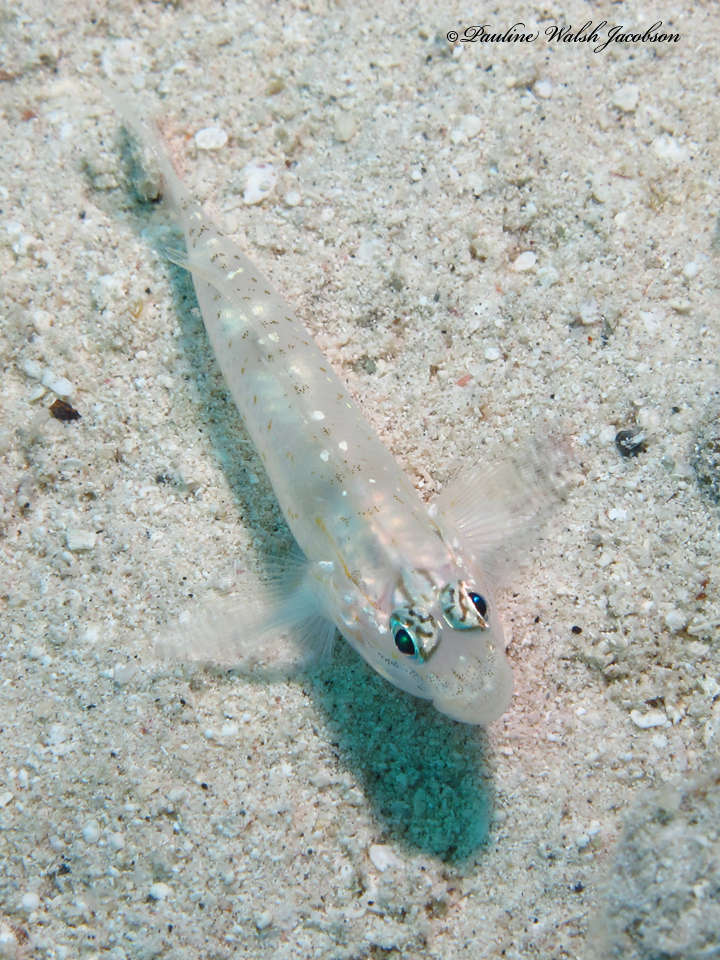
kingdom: Animalia
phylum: Chordata
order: Perciformes
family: Gobiidae
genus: Coryphopterus
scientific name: Coryphopterus venezuelae
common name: Sand-canyon goby
